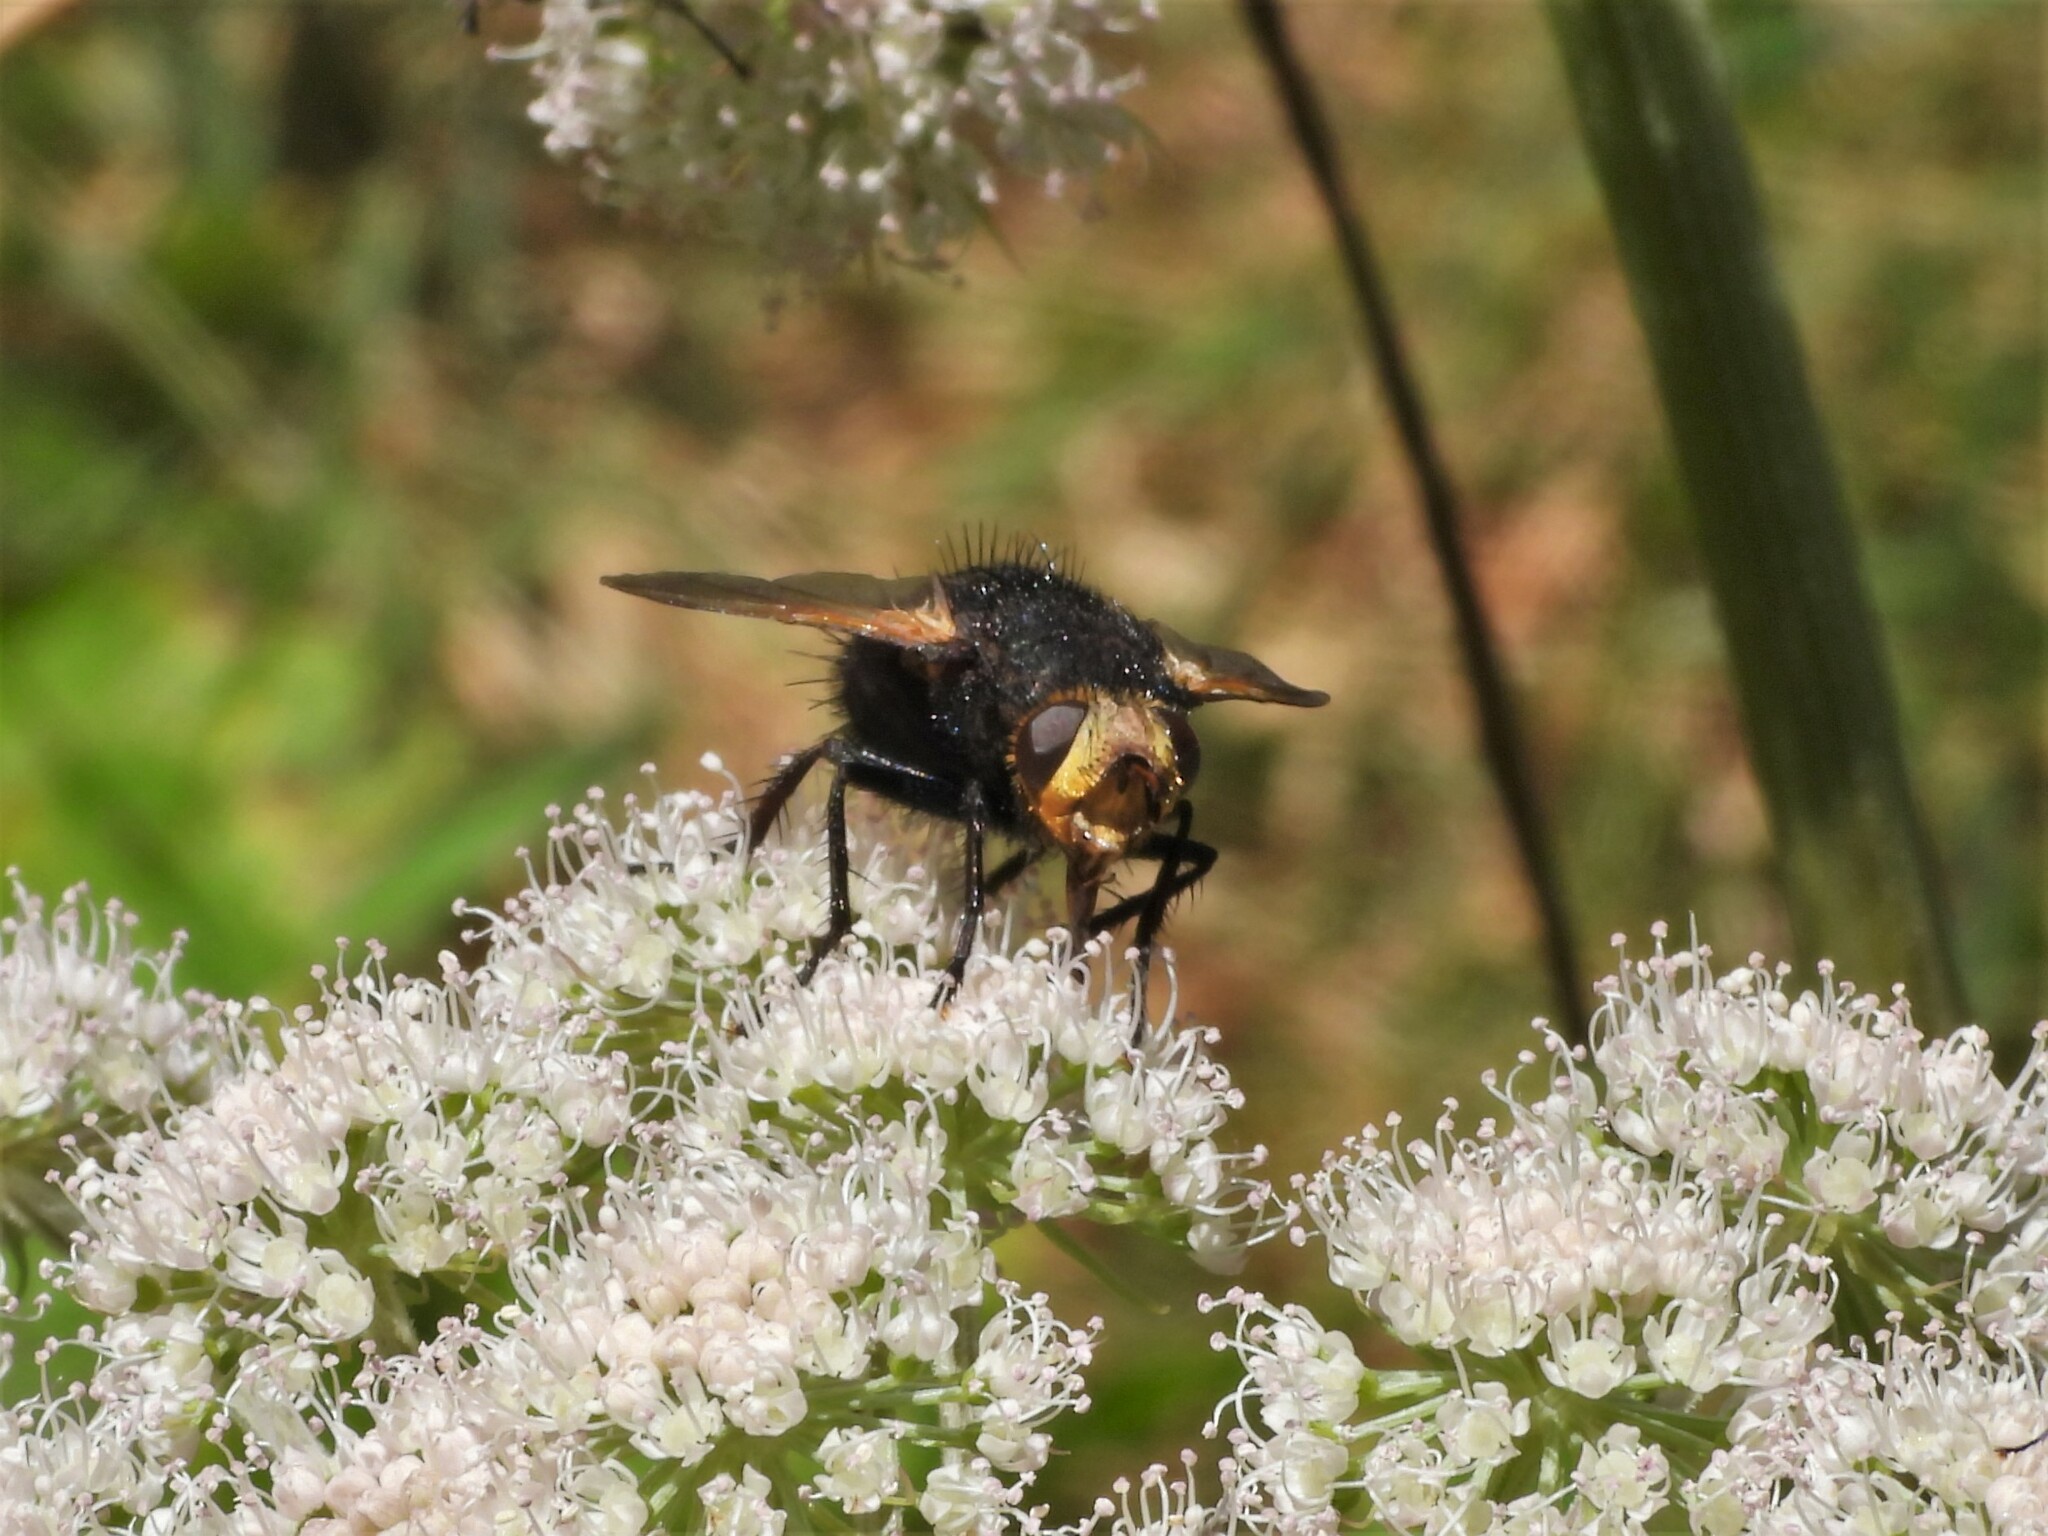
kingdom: Animalia
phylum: Arthropoda
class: Insecta
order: Diptera
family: Tachinidae
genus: Tachina
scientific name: Tachina grossa
